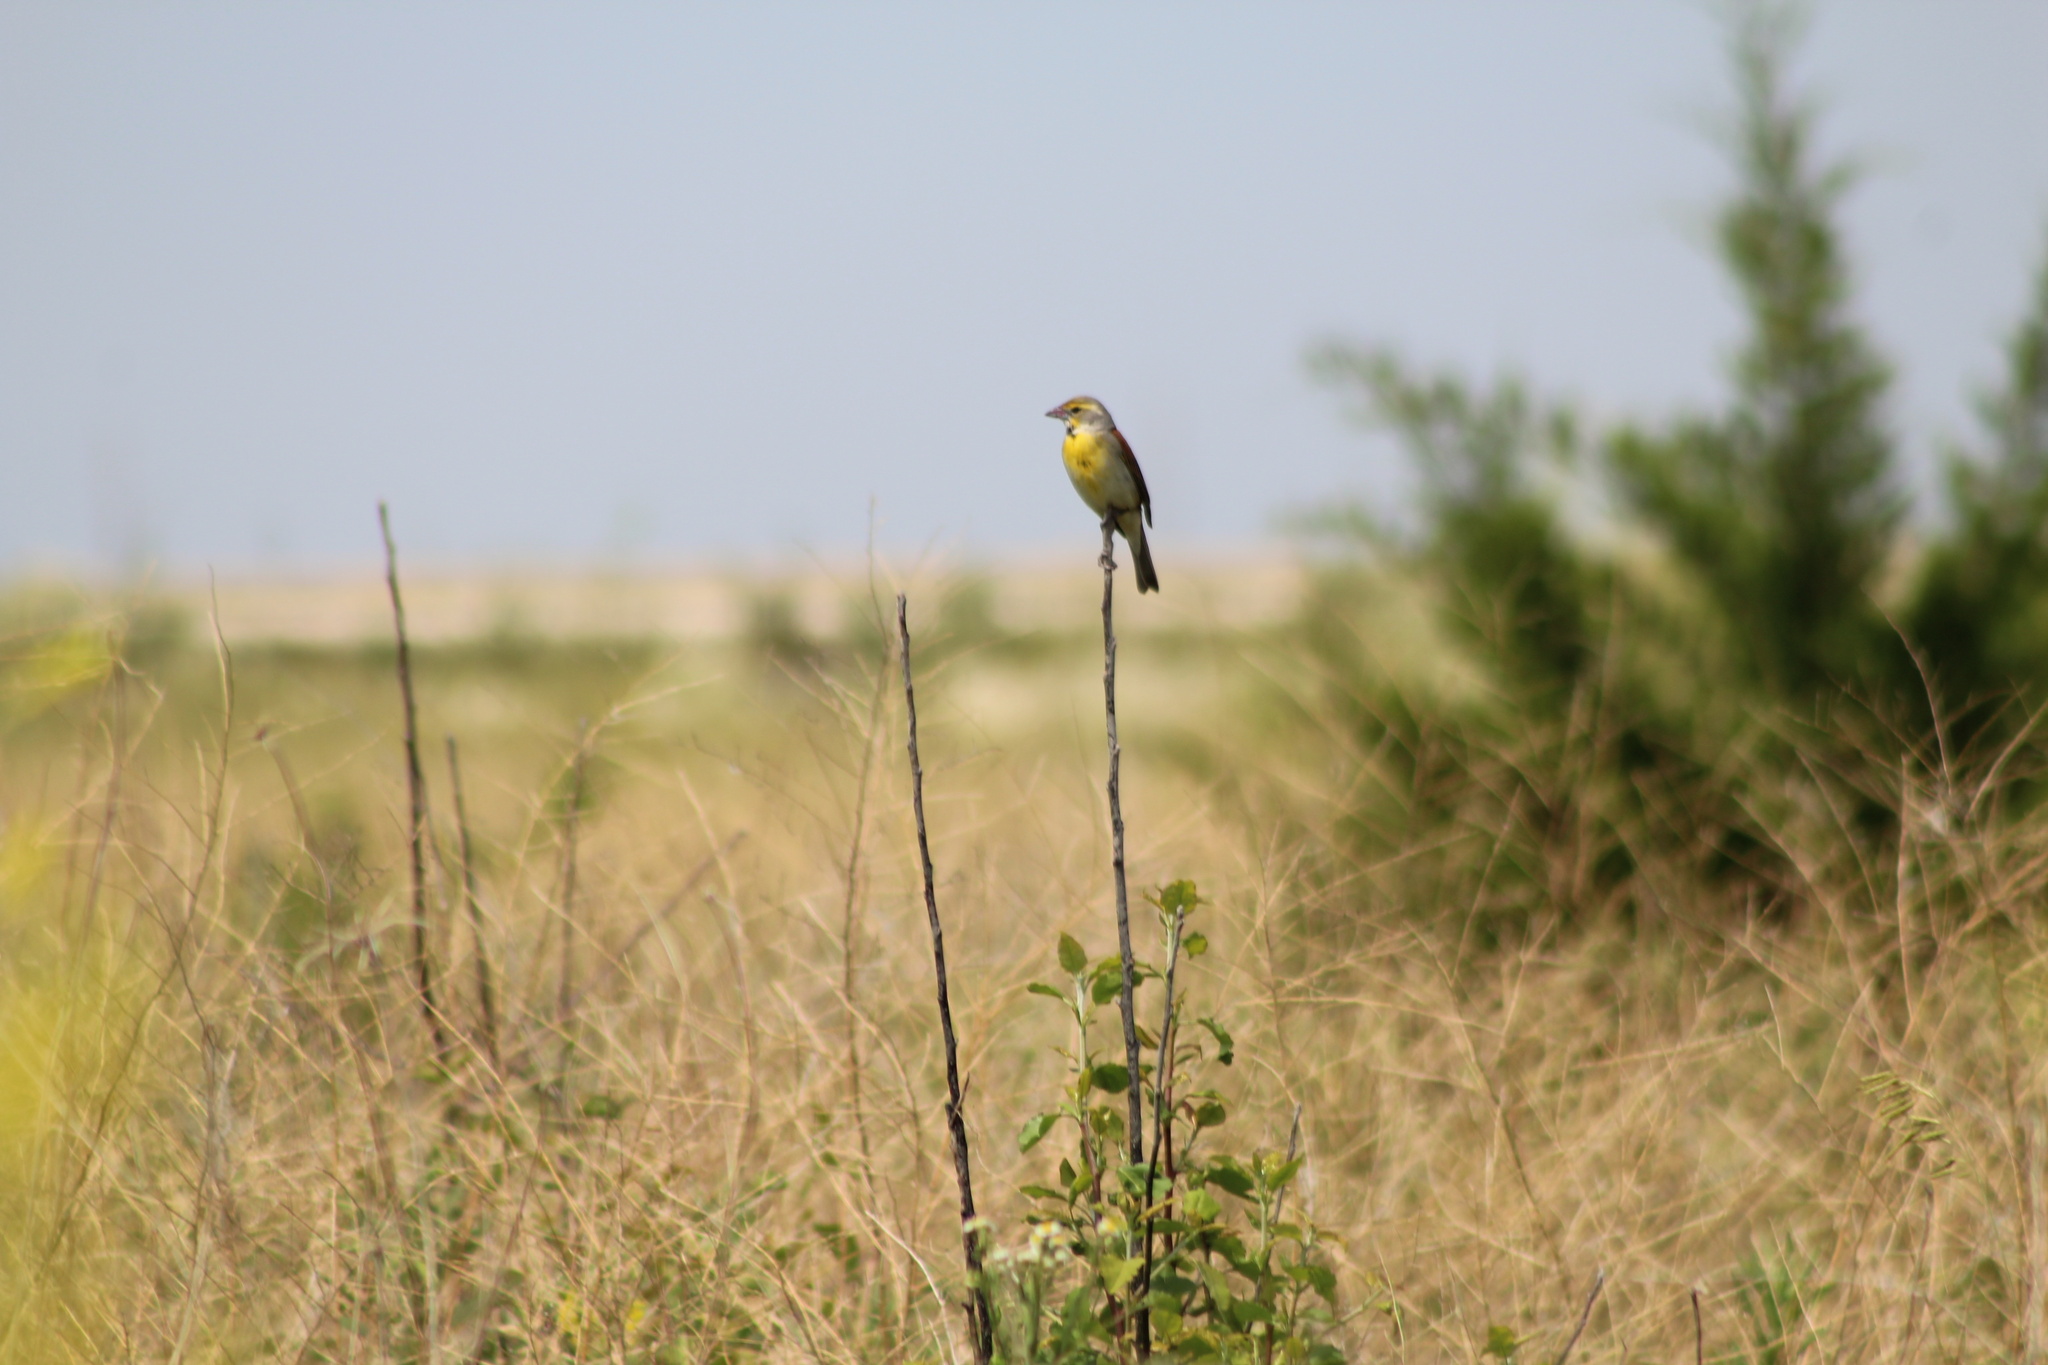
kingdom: Animalia
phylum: Chordata
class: Aves
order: Passeriformes
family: Cardinalidae
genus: Spiza
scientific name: Spiza americana
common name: Dickcissel
